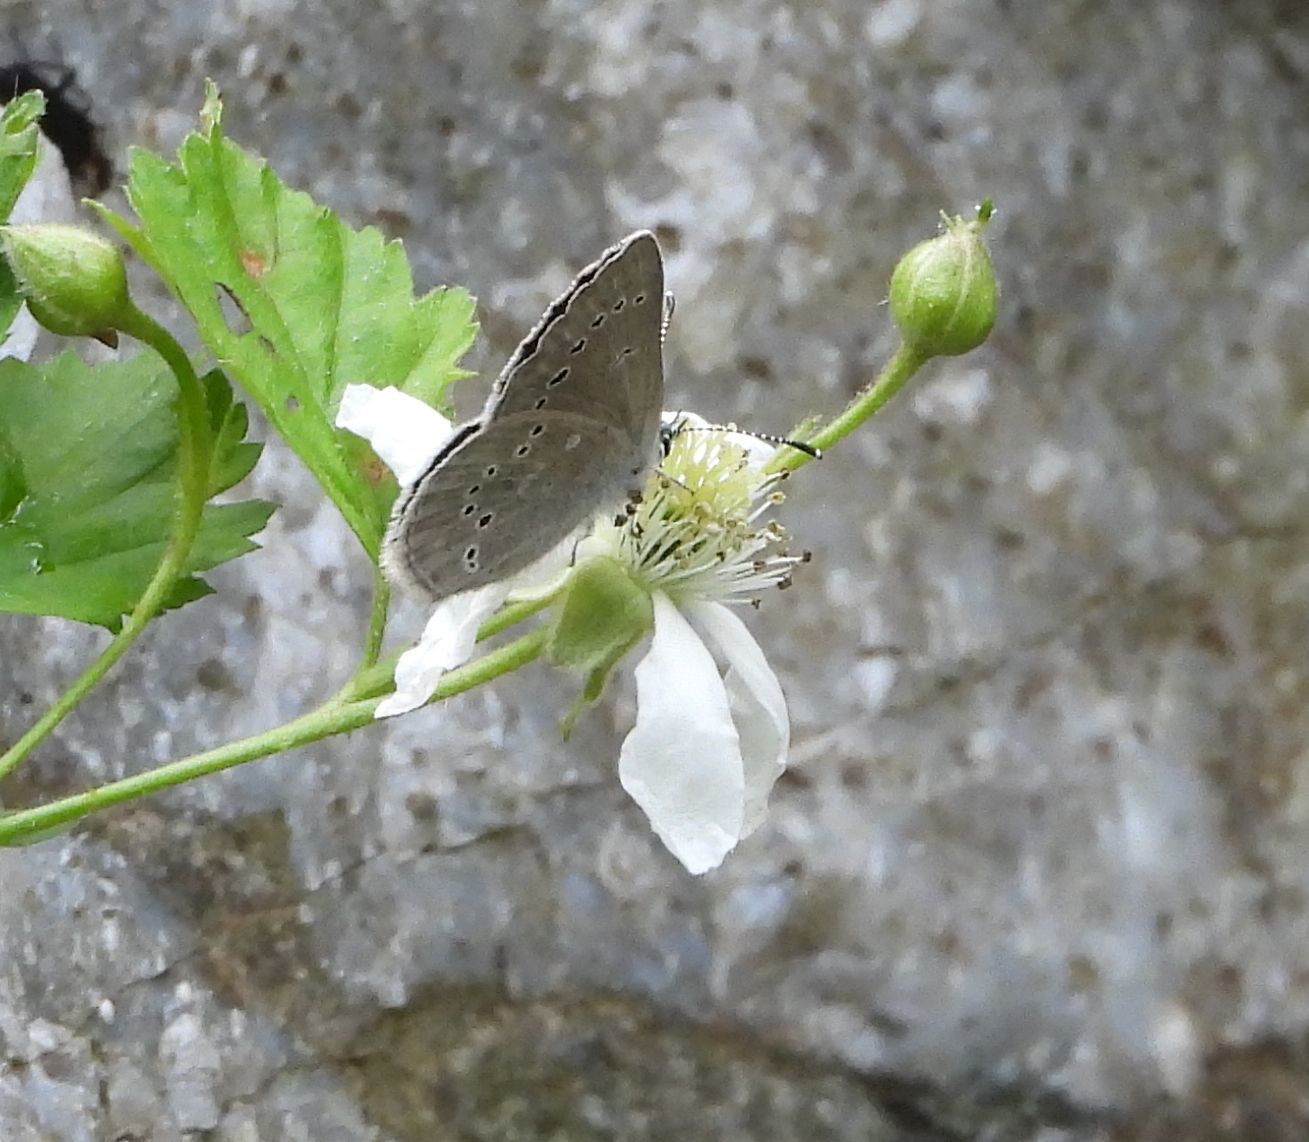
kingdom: Animalia
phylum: Arthropoda
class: Insecta
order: Lepidoptera
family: Lycaenidae
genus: Glaucopsyche
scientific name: Glaucopsyche lygdamus
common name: Silvery blue
